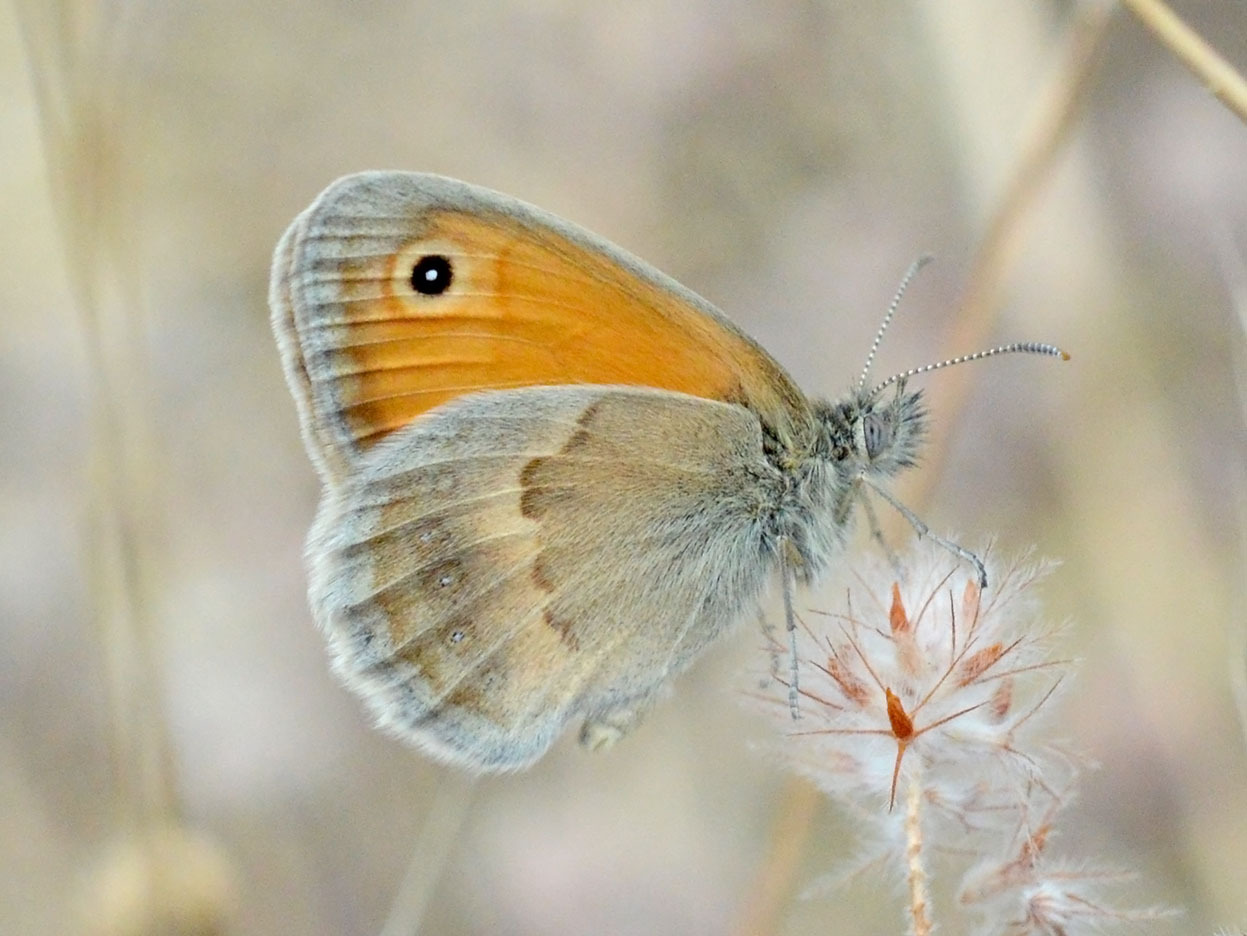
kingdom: Animalia
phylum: Arthropoda
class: Insecta
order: Lepidoptera
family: Nymphalidae
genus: Coenonympha
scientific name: Coenonympha pamphilus
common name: Small heath
